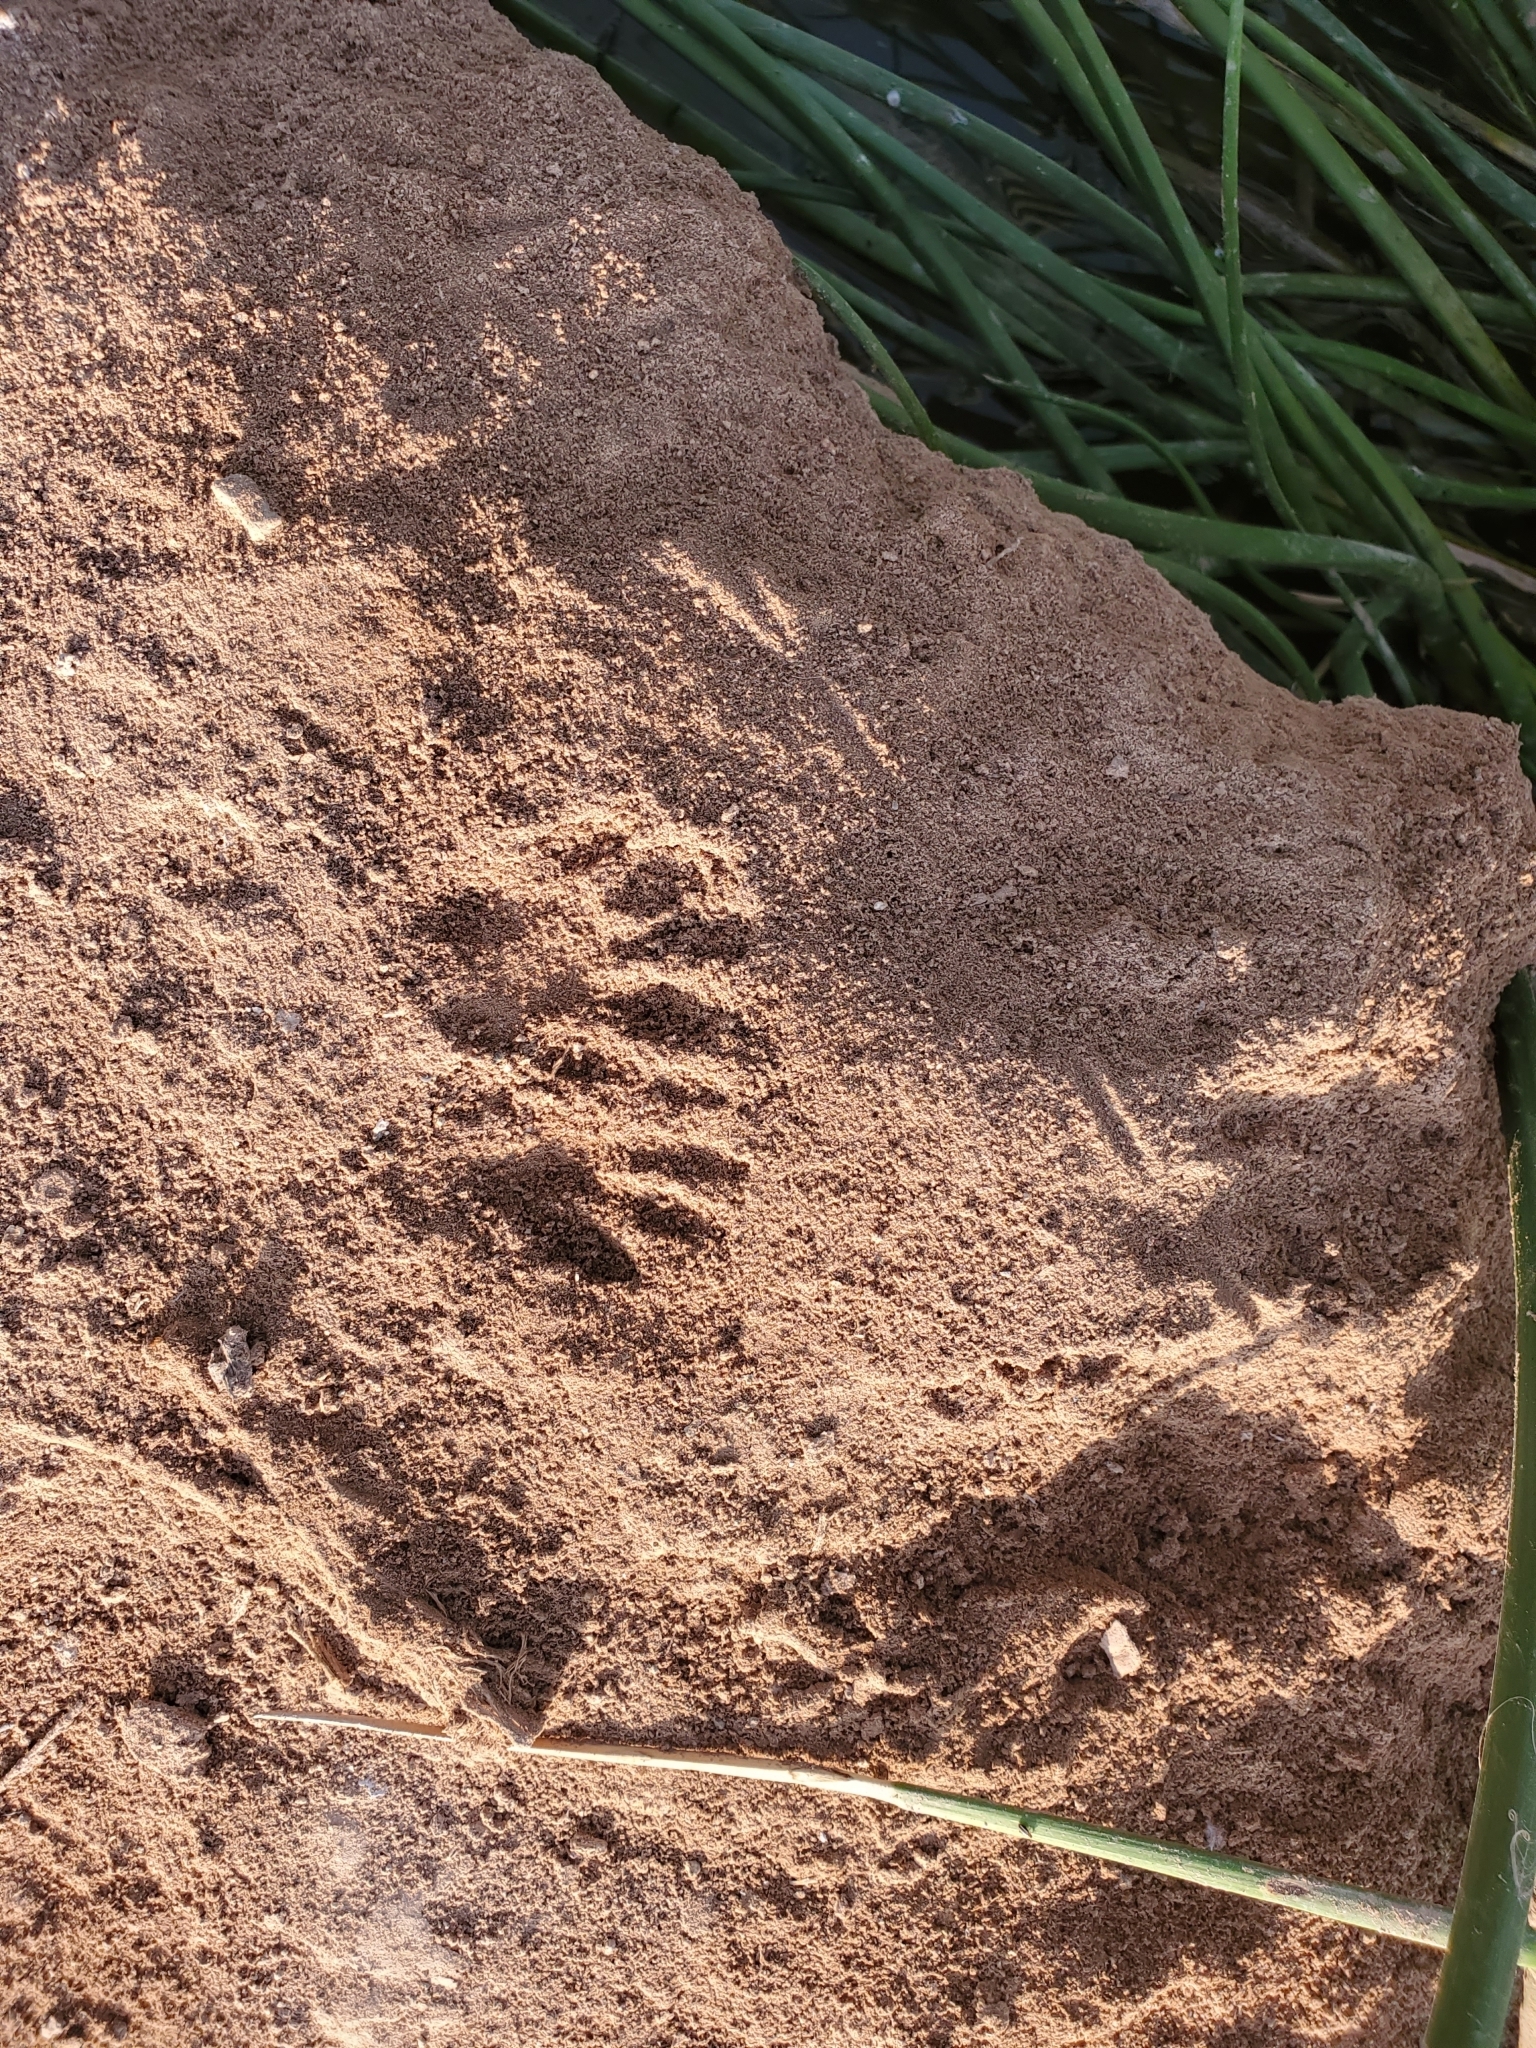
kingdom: Animalia
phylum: Chordata
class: Mammalia
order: Carnivora
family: Procyonidae
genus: Procyon
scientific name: Procyon lotor
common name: Raccoon
